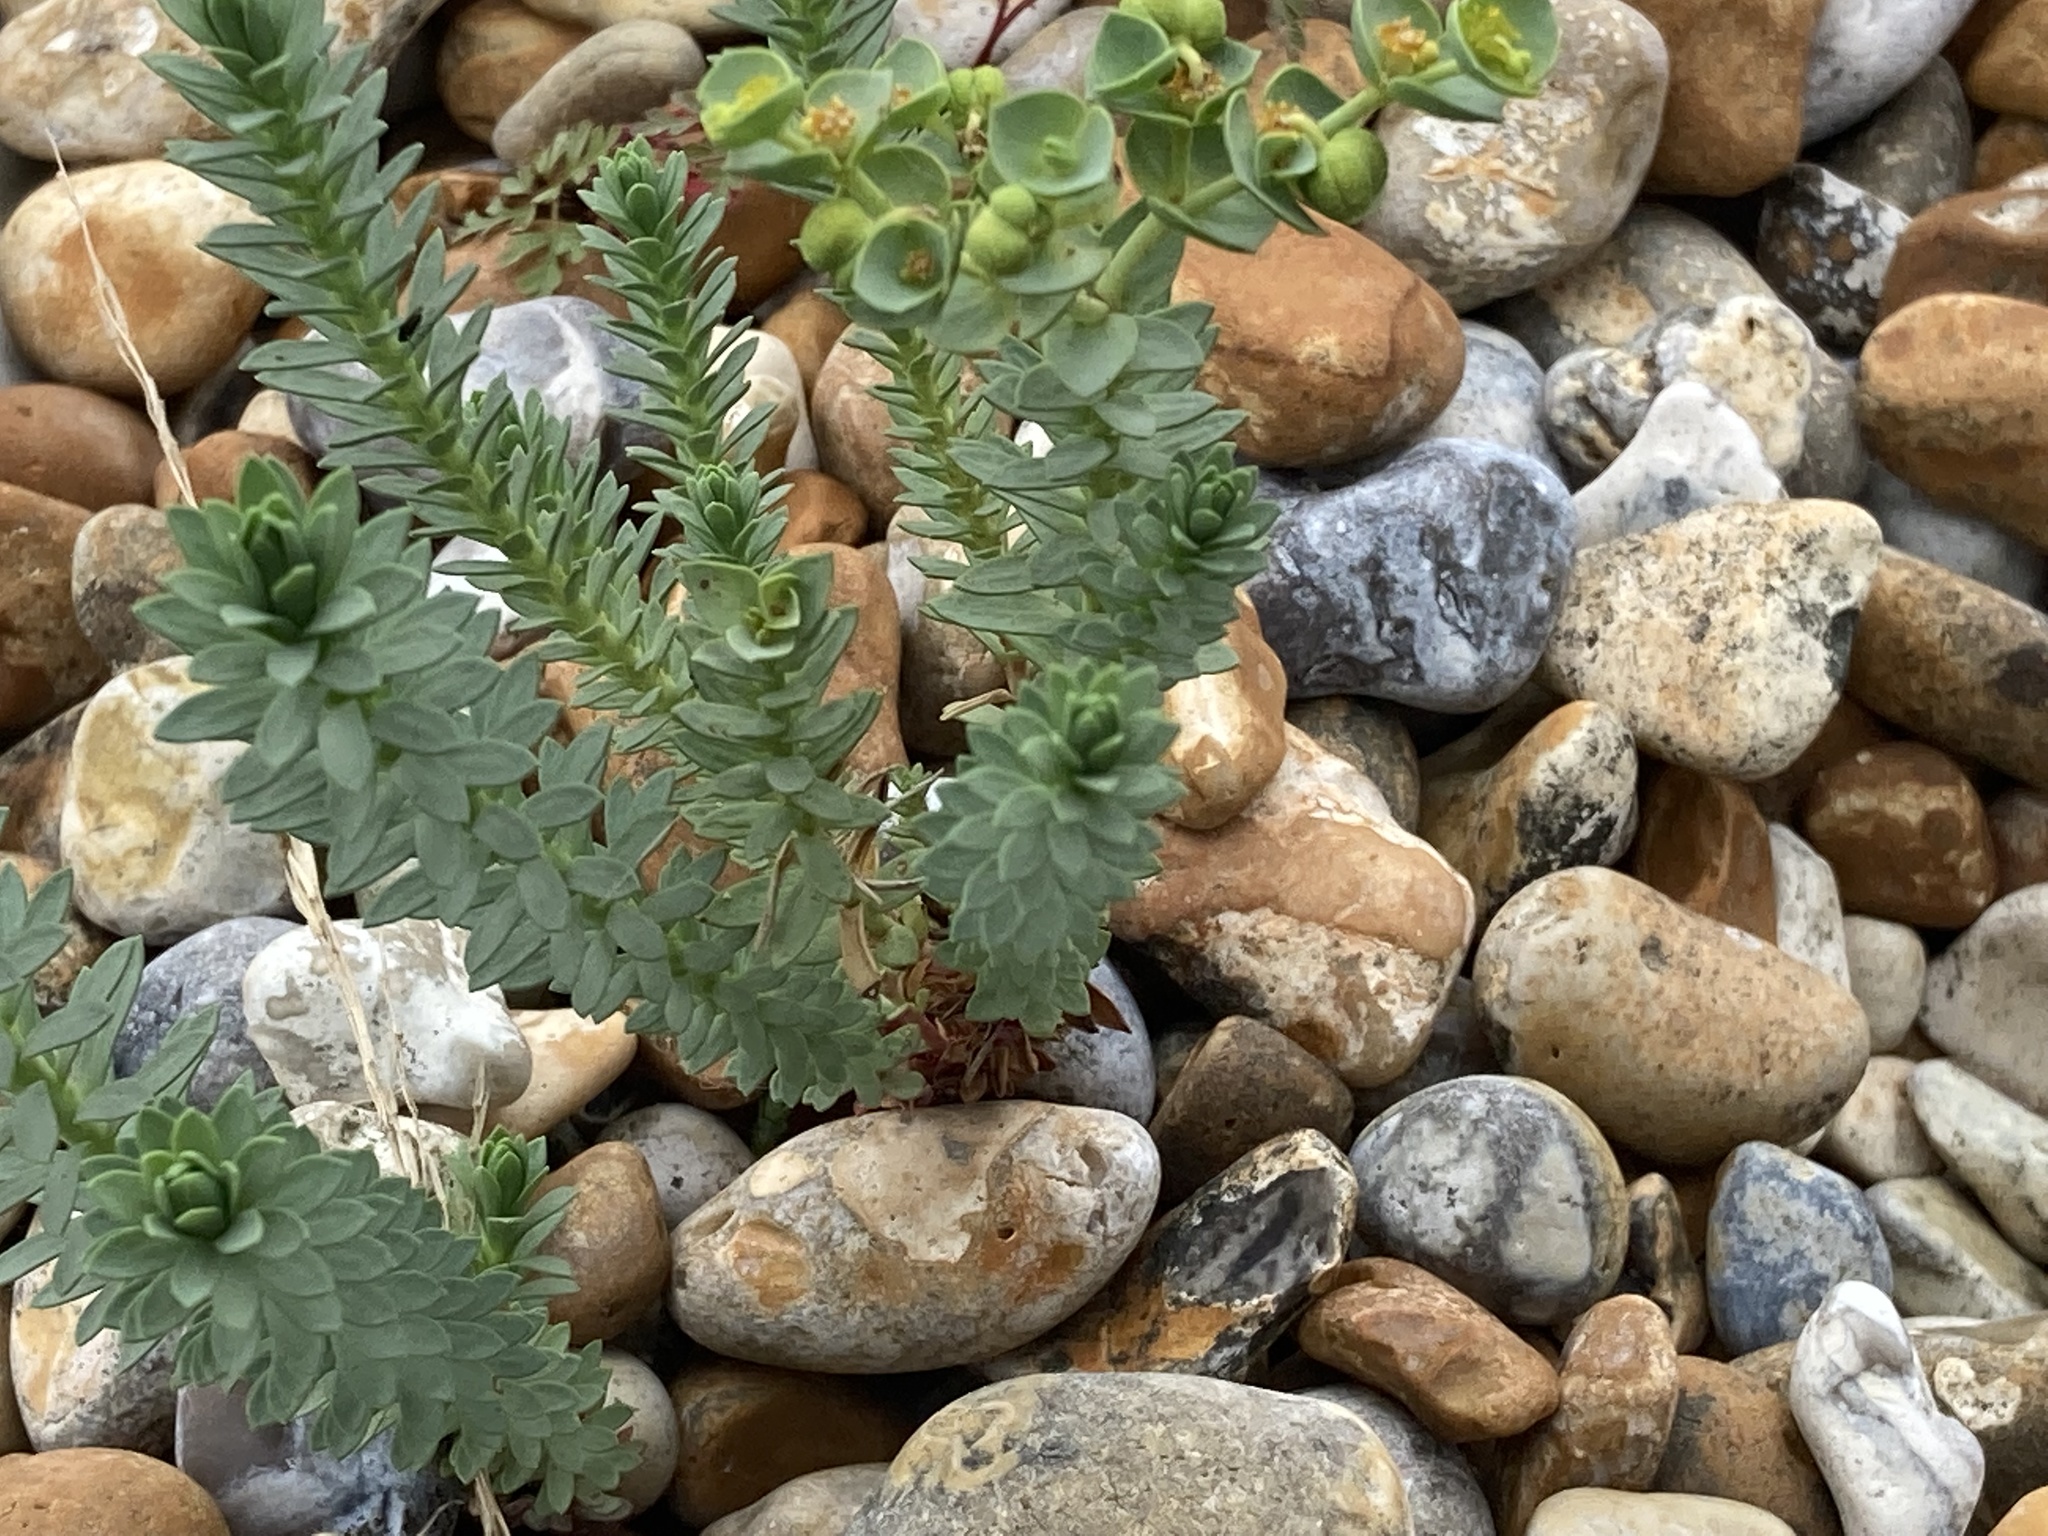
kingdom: Plantae
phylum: Tracheophyta
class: Magnoliopsida
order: Malpighiales
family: Euphorbiaceae
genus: Euphorbia
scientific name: Euphorbia paralias
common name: Sea spurge
